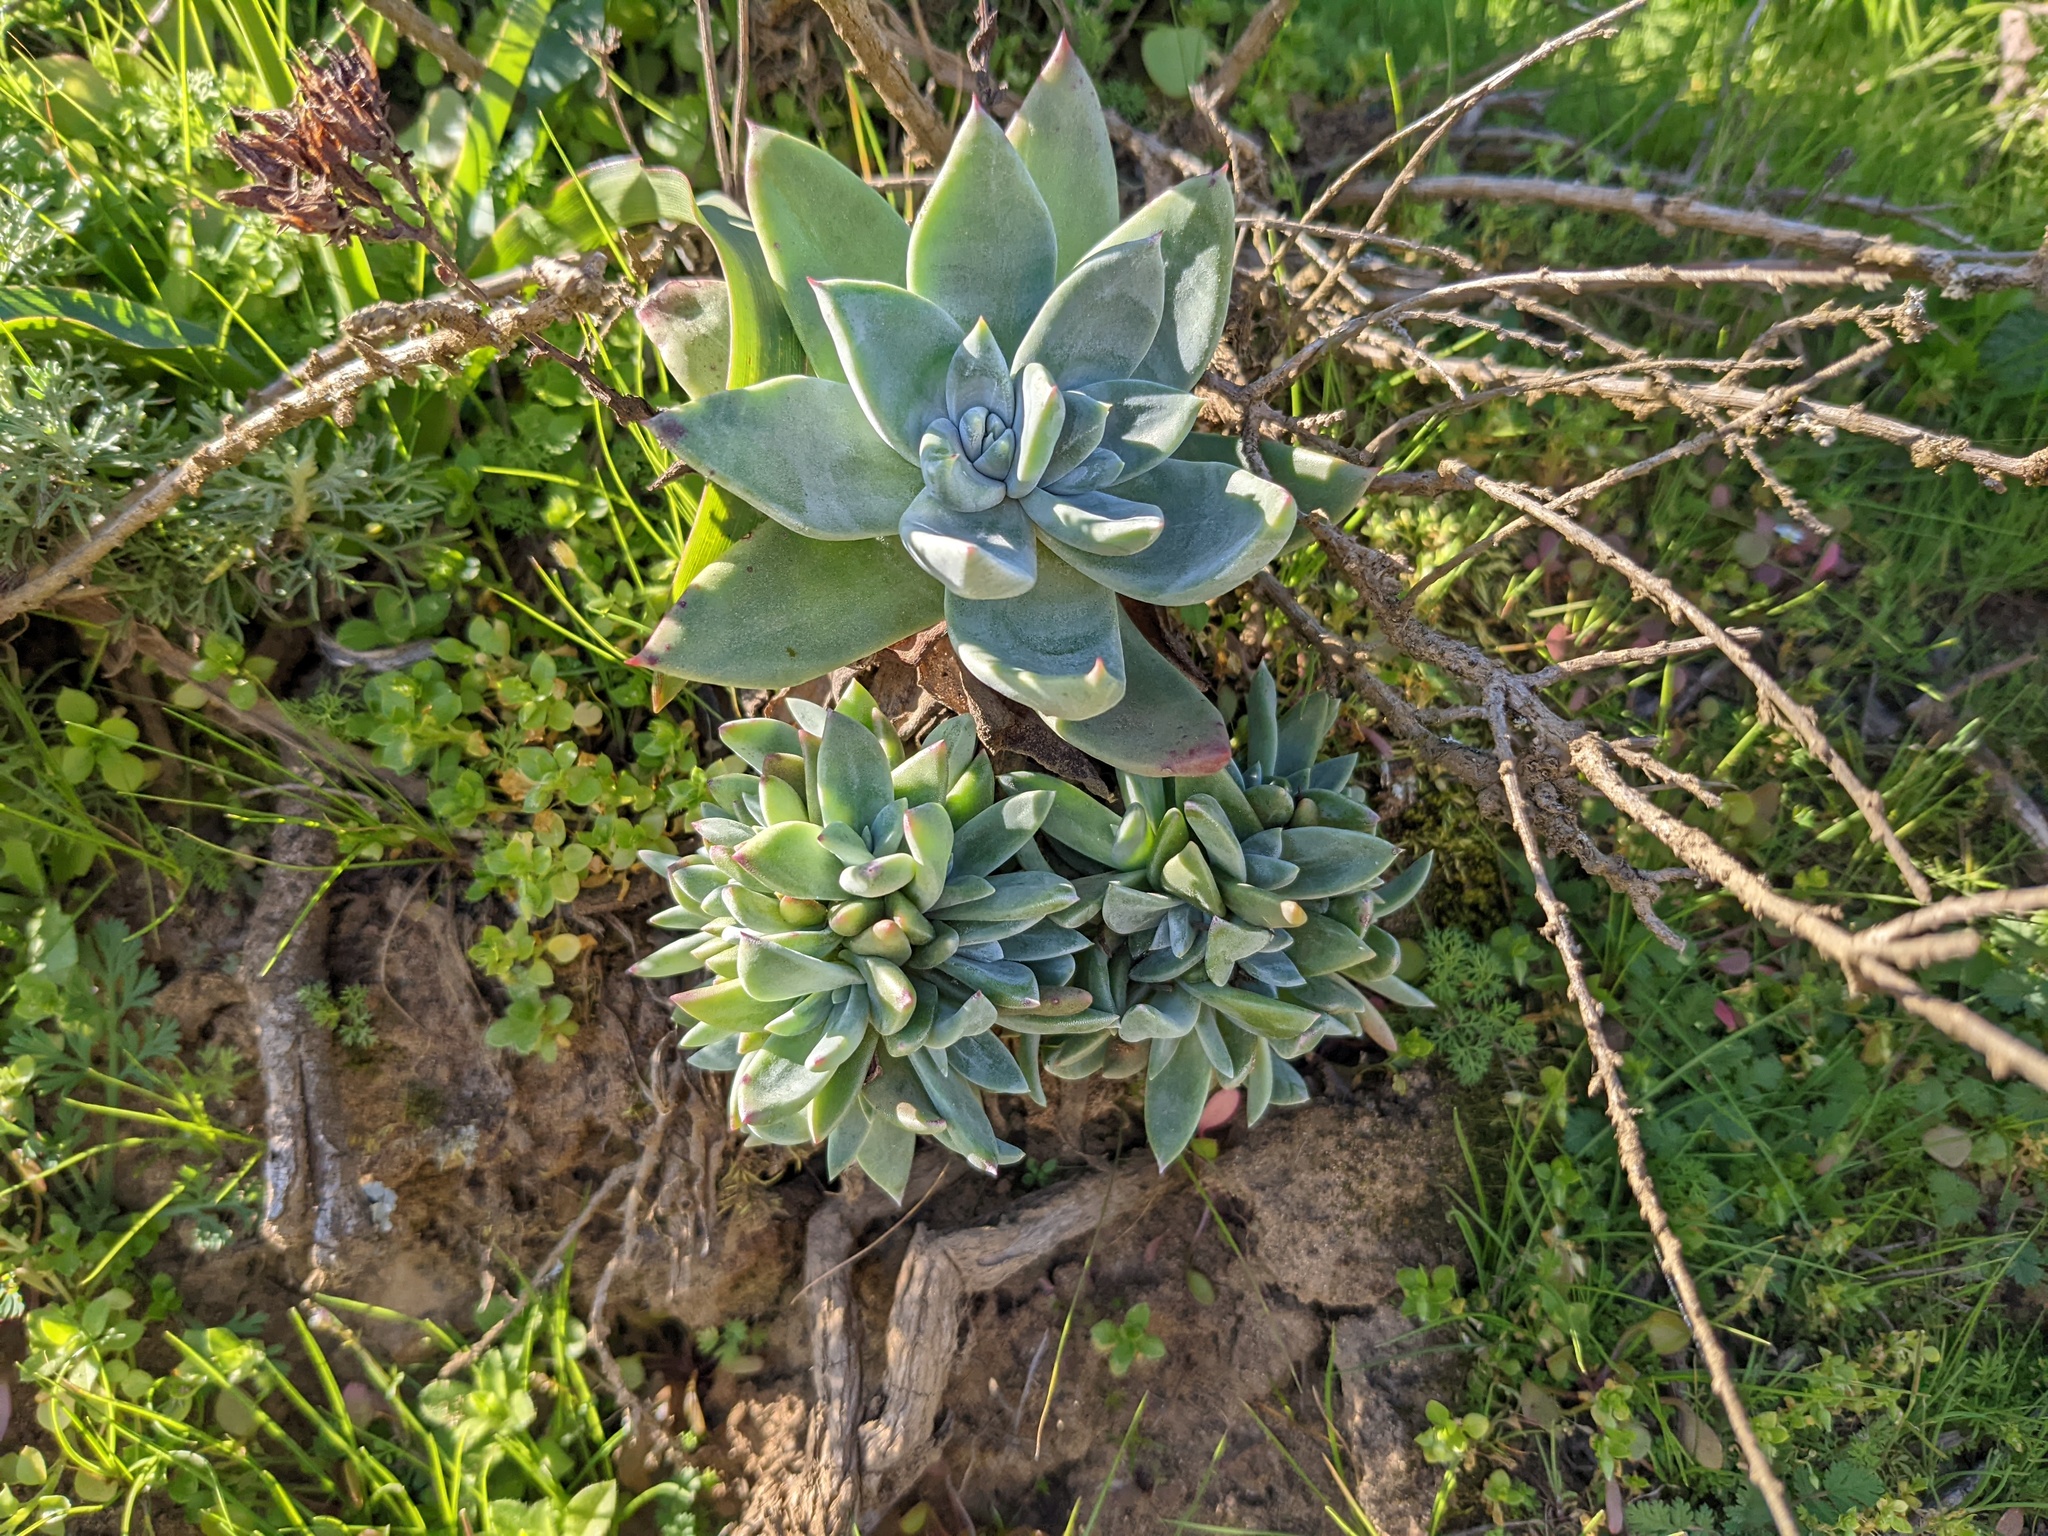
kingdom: Plantae
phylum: Tracheophyta
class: Magnoliopsida
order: Saxifragales
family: Crassulaceae
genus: Dudleya
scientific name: Dudleya farinosa
